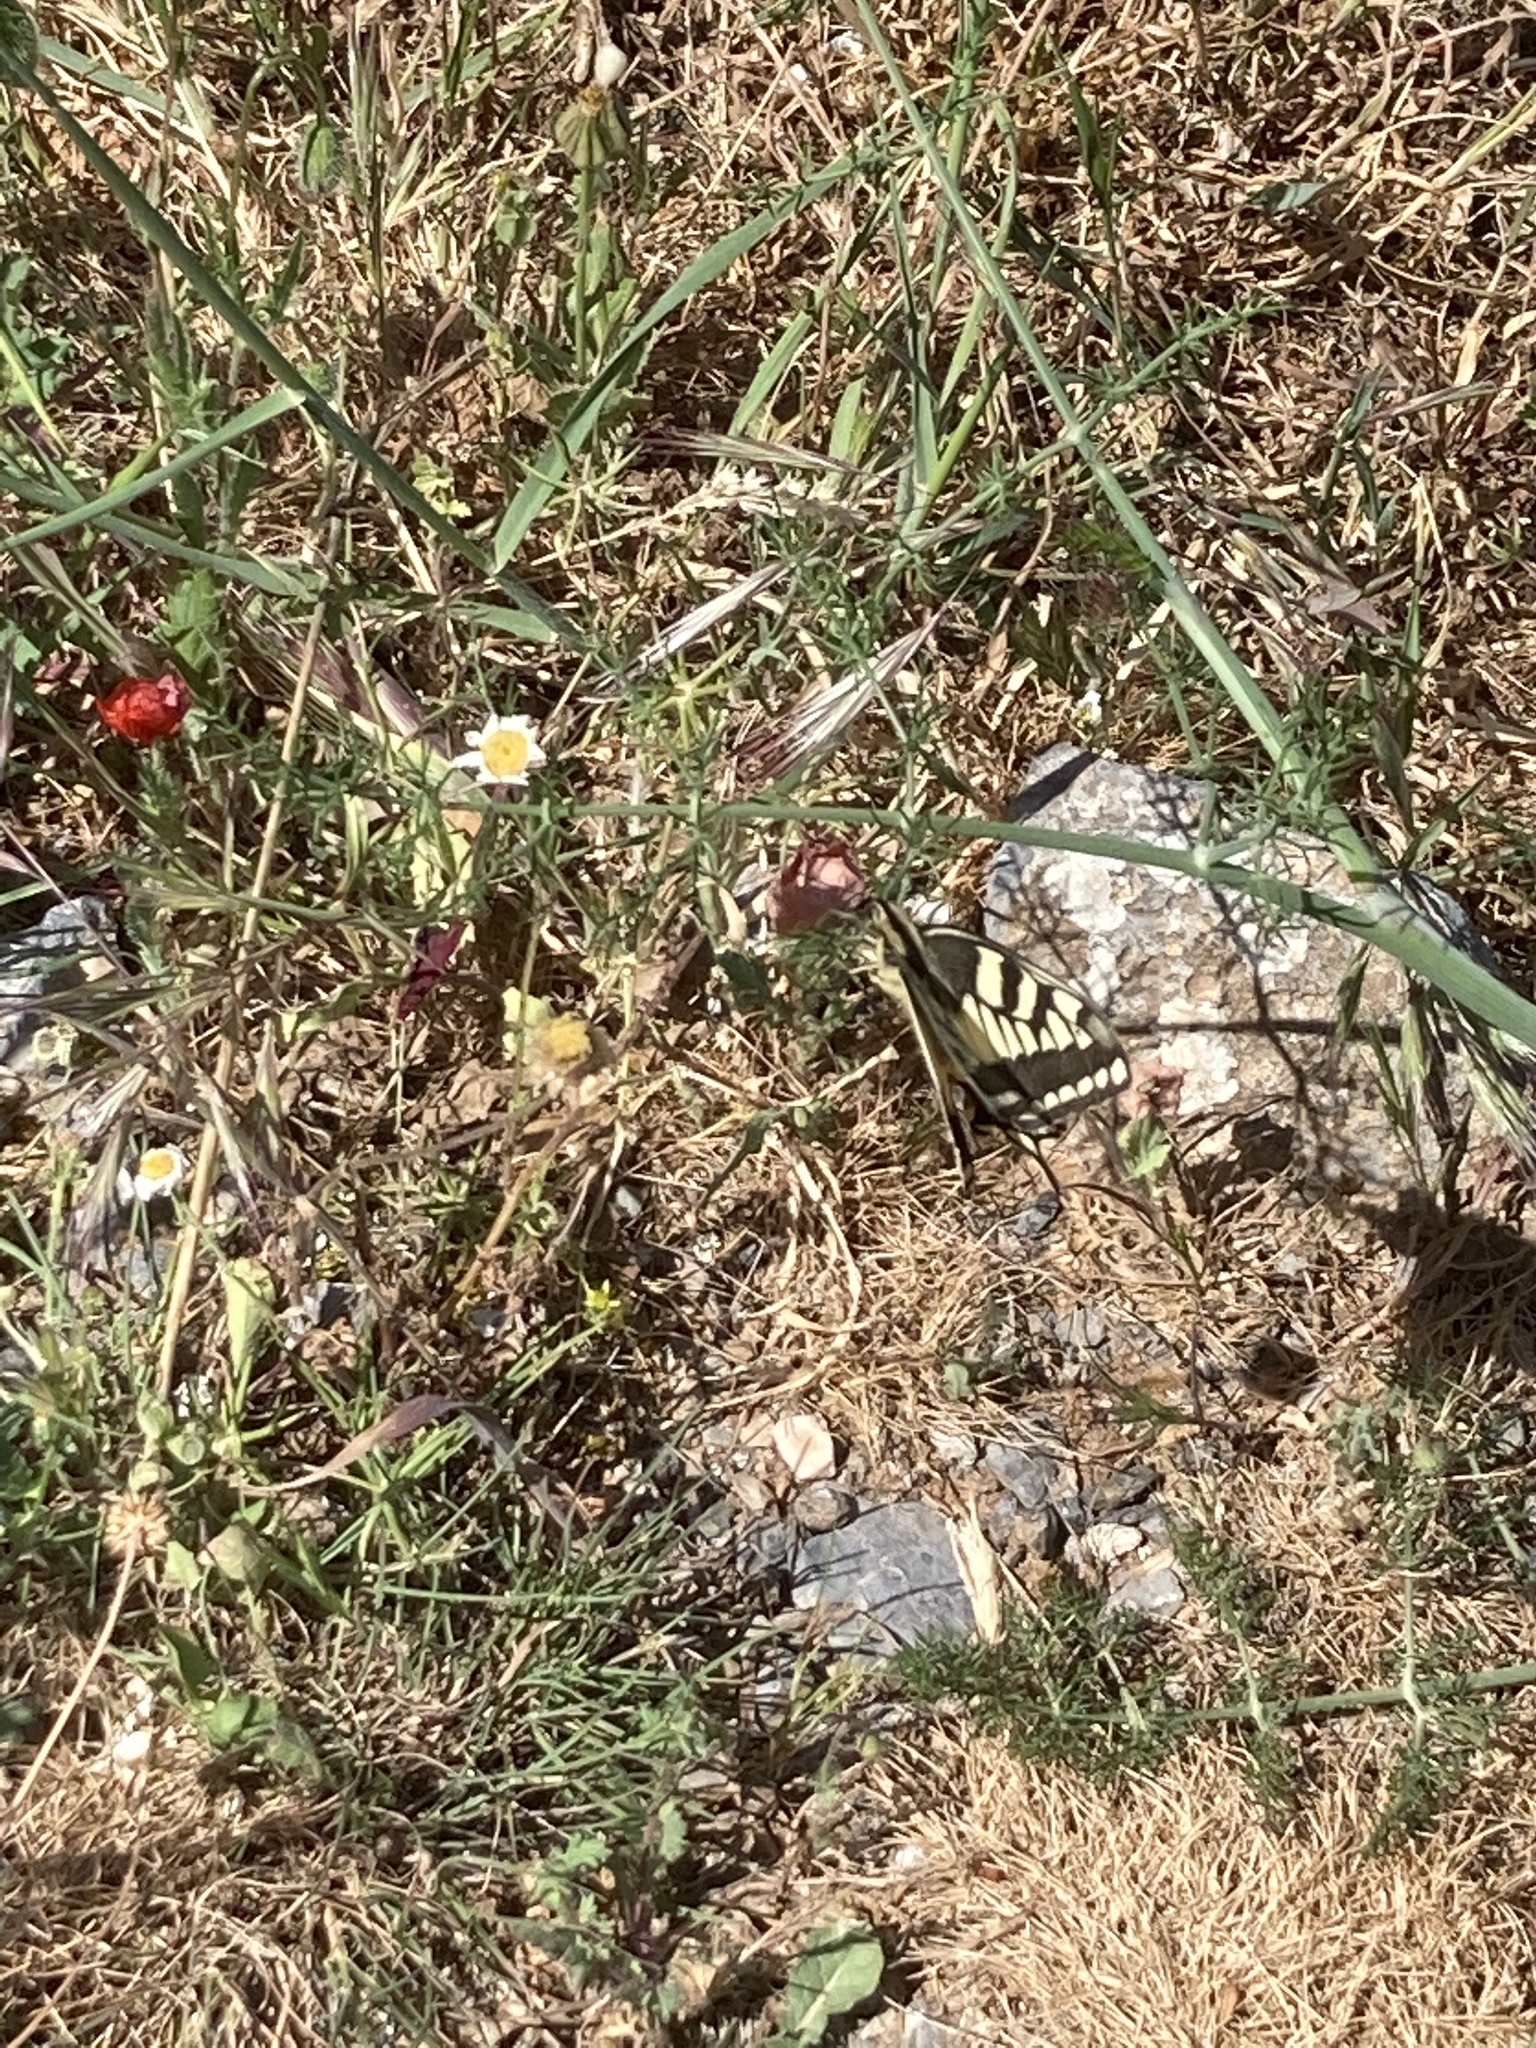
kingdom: Animalia
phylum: Arthropoda
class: Insecta
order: Lepidoptera
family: Papilionidae
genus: Papilio
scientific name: Papilio machaon
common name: Swallowtail
